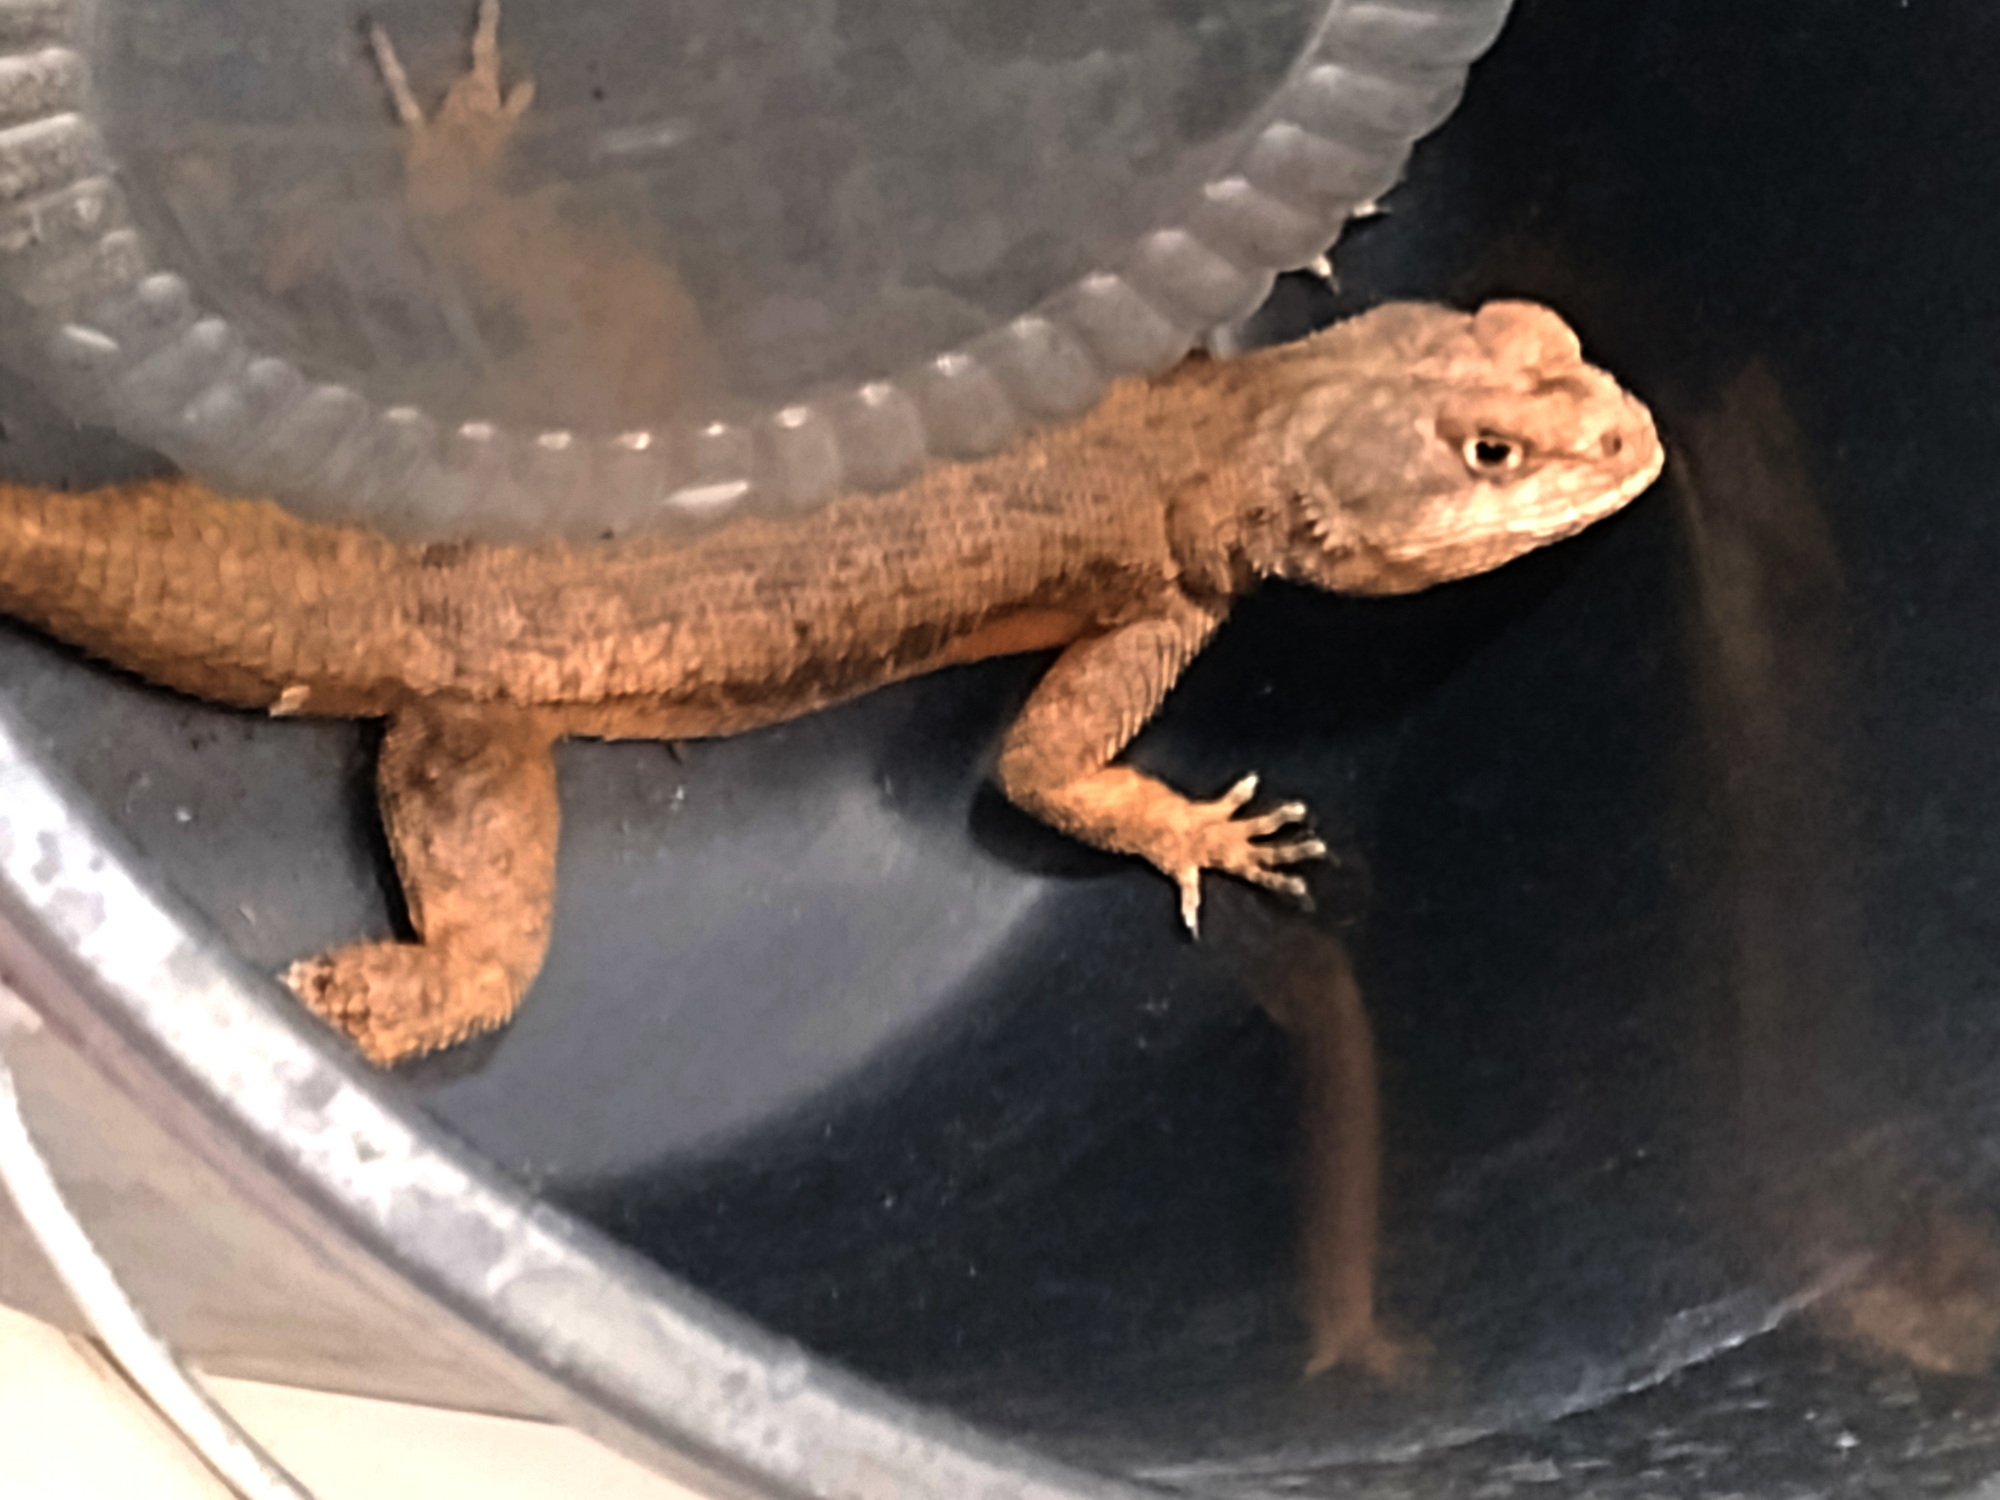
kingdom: Animalia
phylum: Chordata
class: Squamata
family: Tropiduridae
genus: Tropidurus
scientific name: Tropidurus hispidus
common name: Peters' lava lizard
